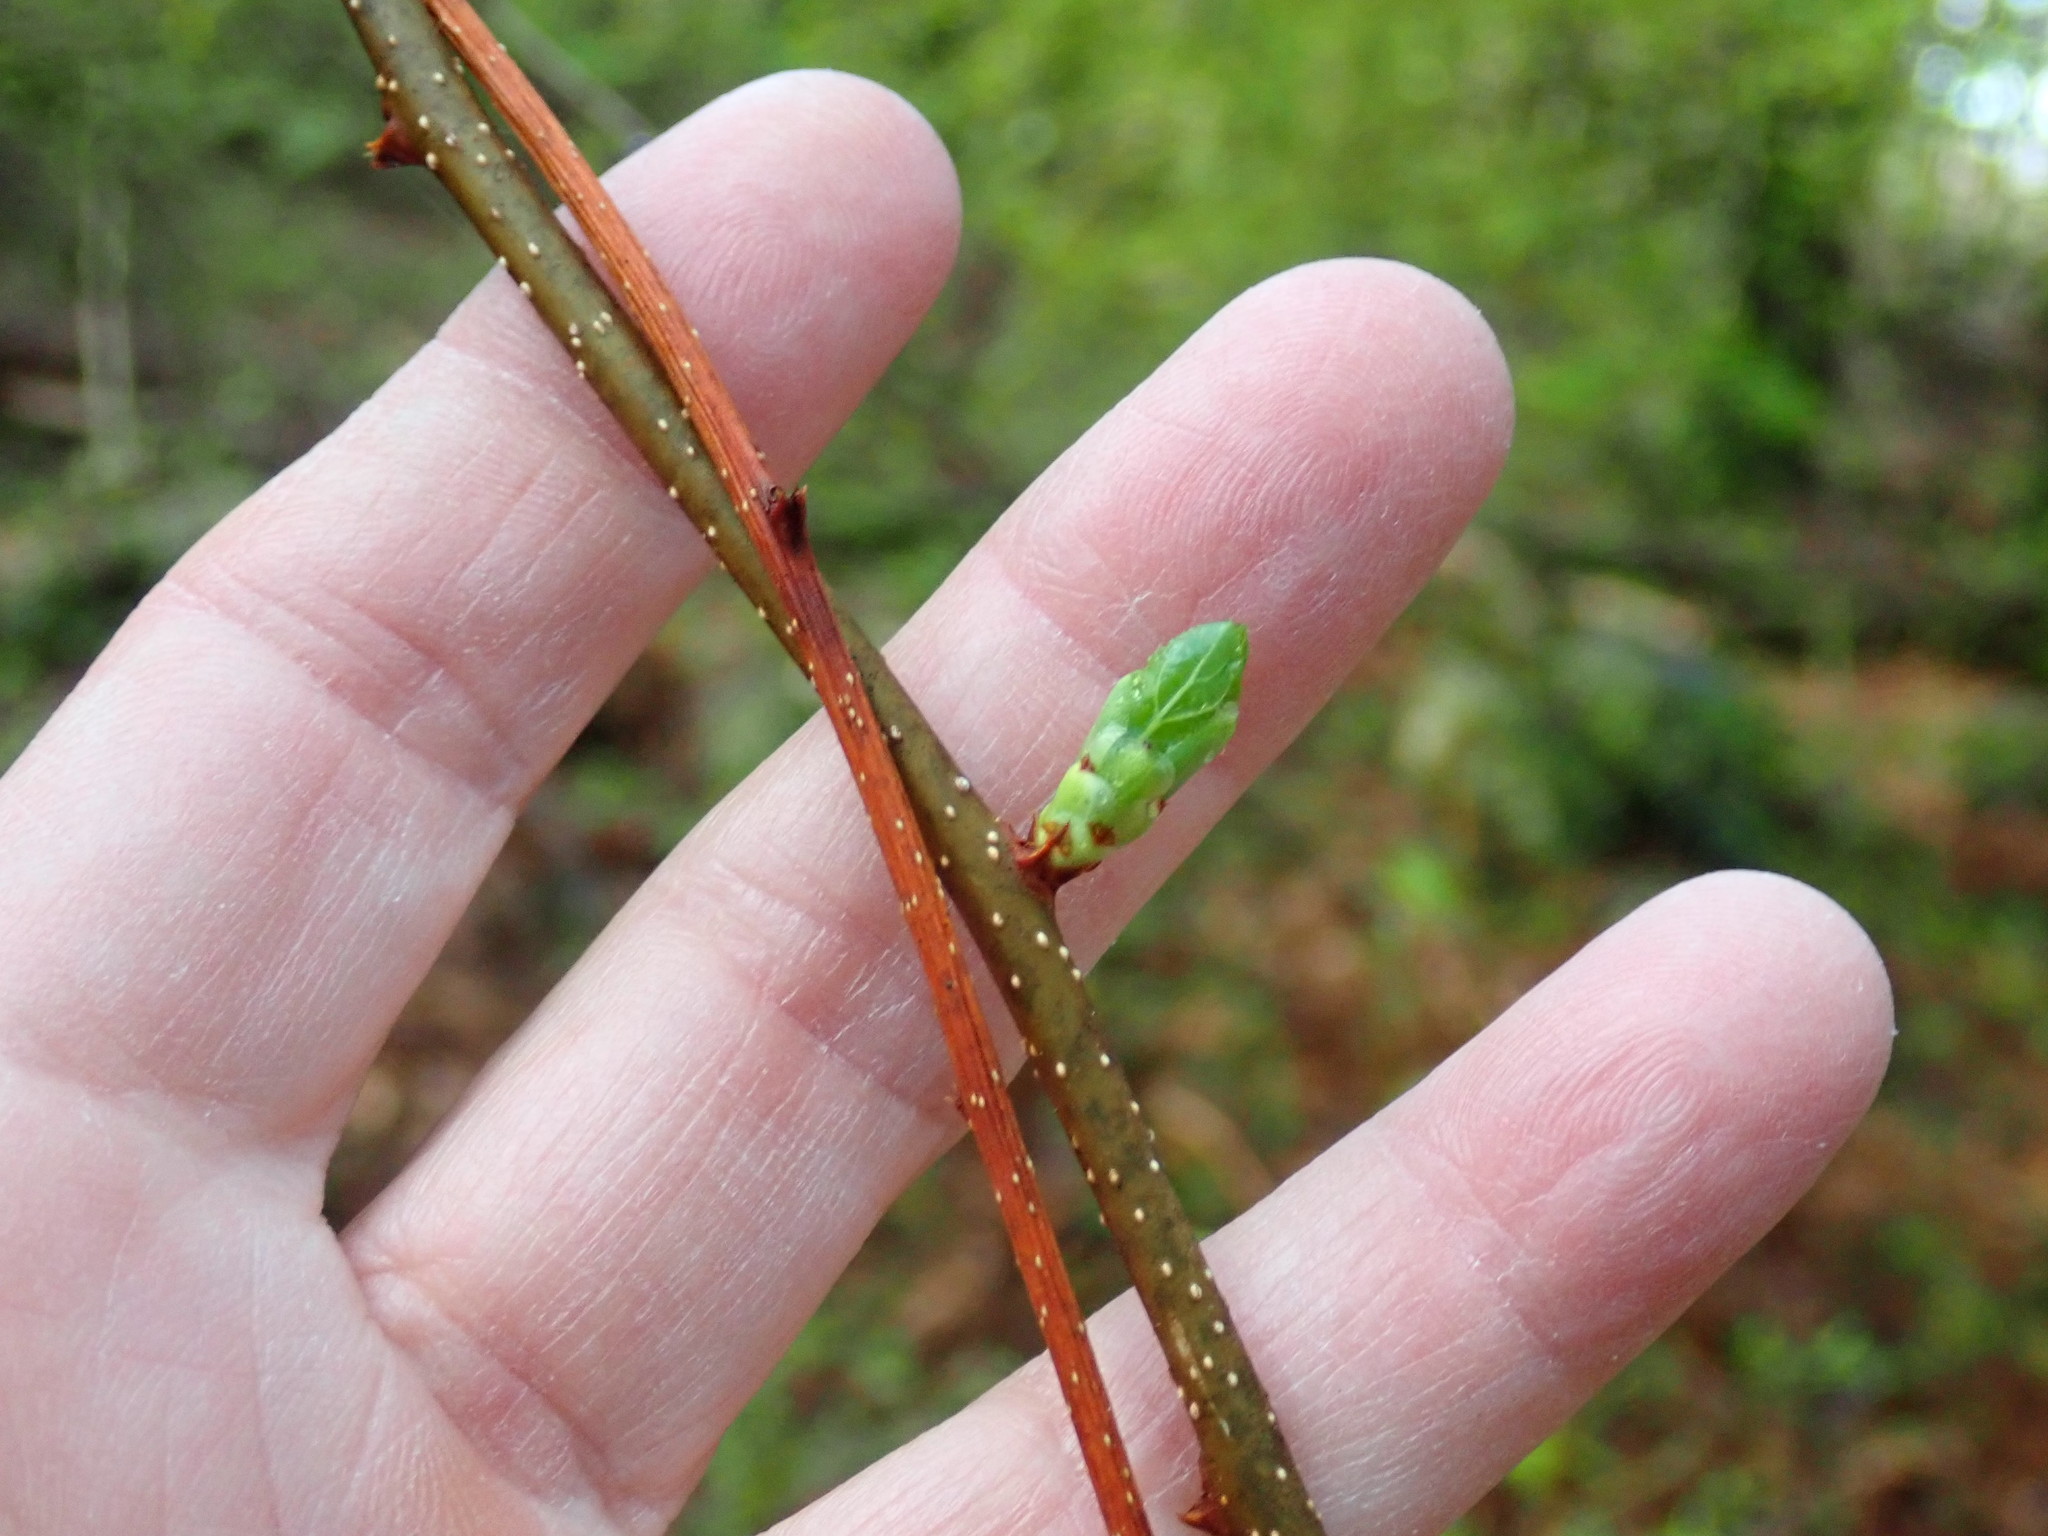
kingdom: Plantae
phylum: Tracheophyta
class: Magnoliopsida
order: Celastrales
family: Celastraceae
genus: Celastrus
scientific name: Celastrus orbiculatus
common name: Oriental bittersweet
